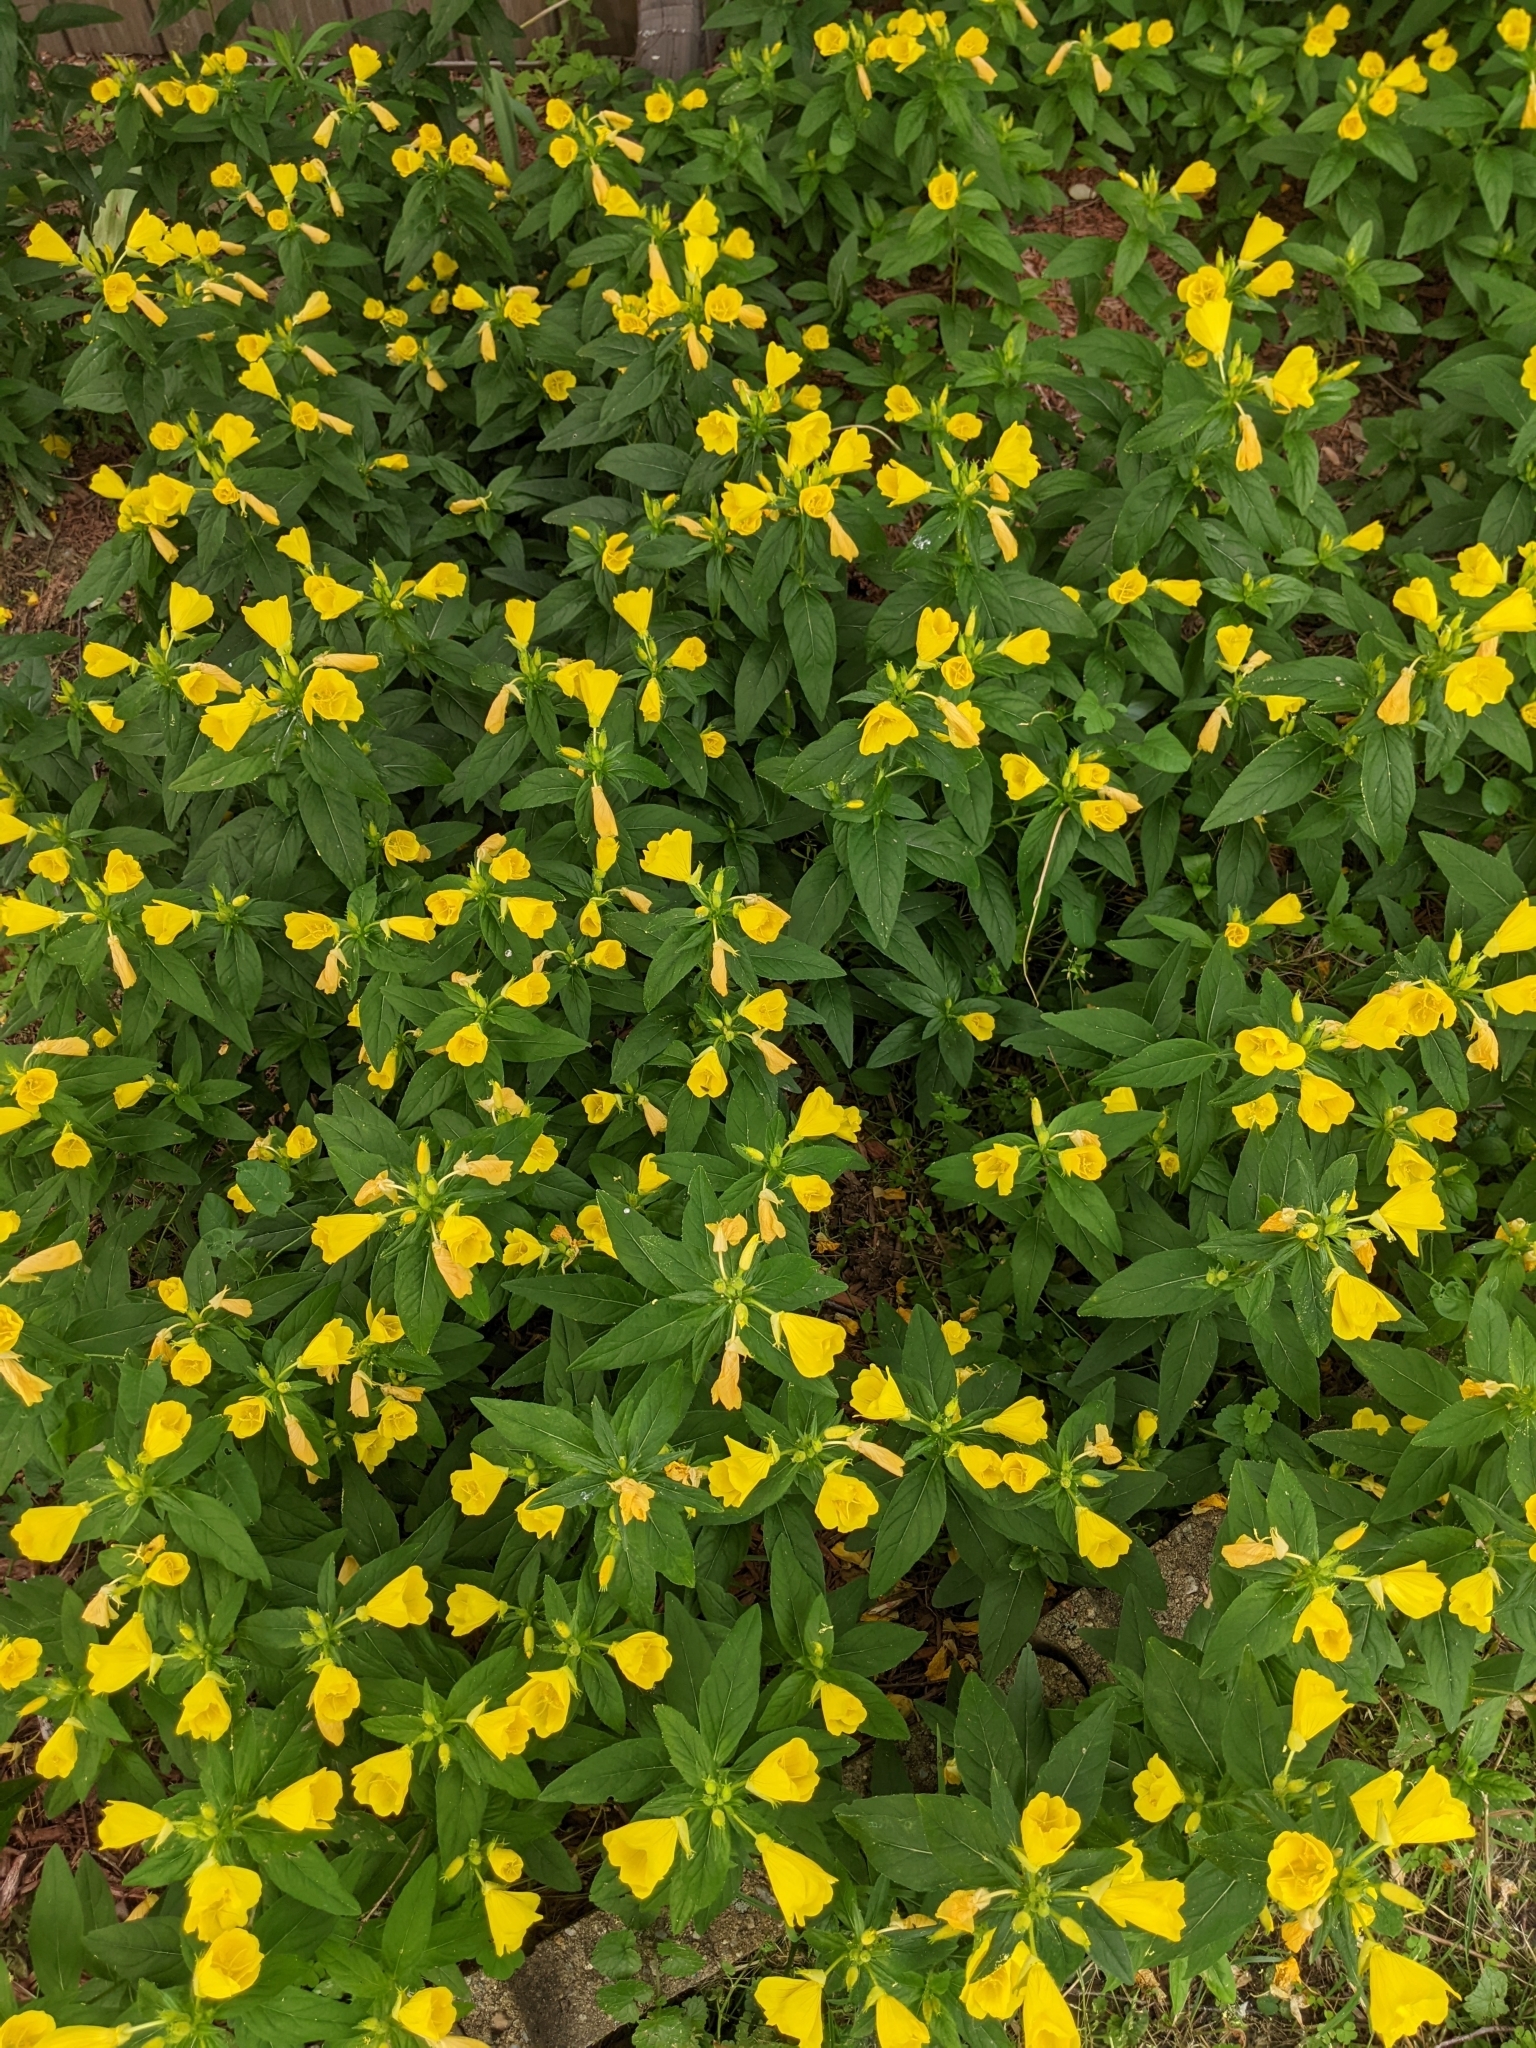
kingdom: Plantae
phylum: Tracheophyta
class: Magnoliopsida
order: Myrtales
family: Onagraceae
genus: Oenothera
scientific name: Oenothera pilosella
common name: Finely-pilose evening-primrose
